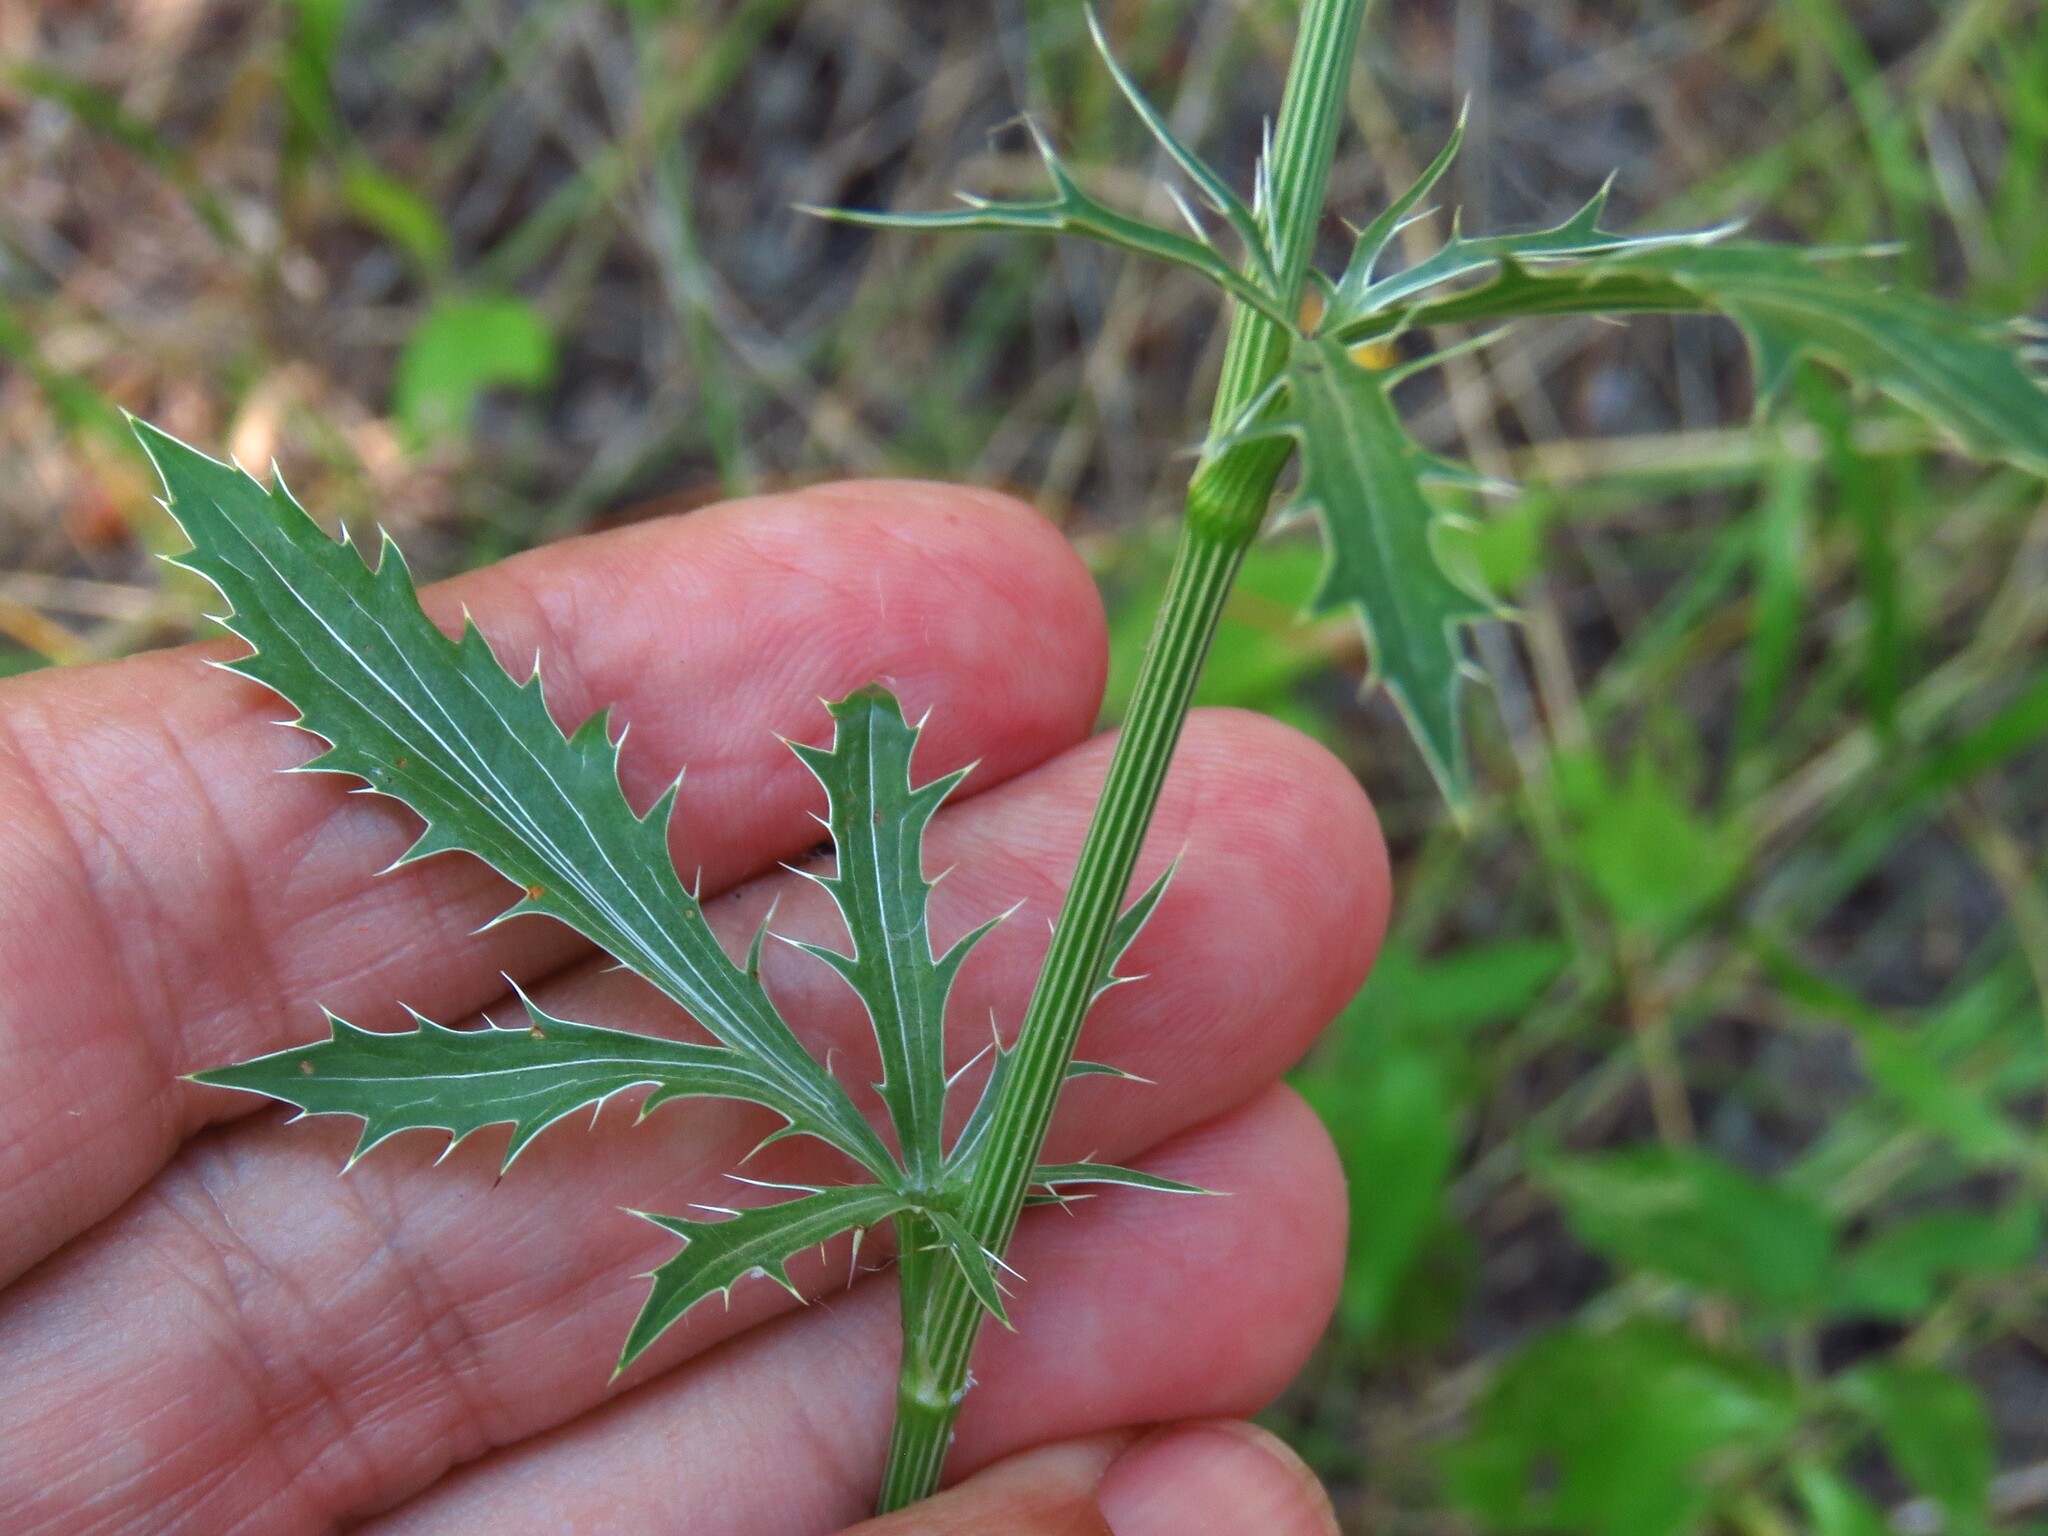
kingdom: Plantae
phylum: Tracheophyta
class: Magnoliopsida
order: Apiales
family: Apiaceae
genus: Eryngium
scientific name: Eryngium hookeri
